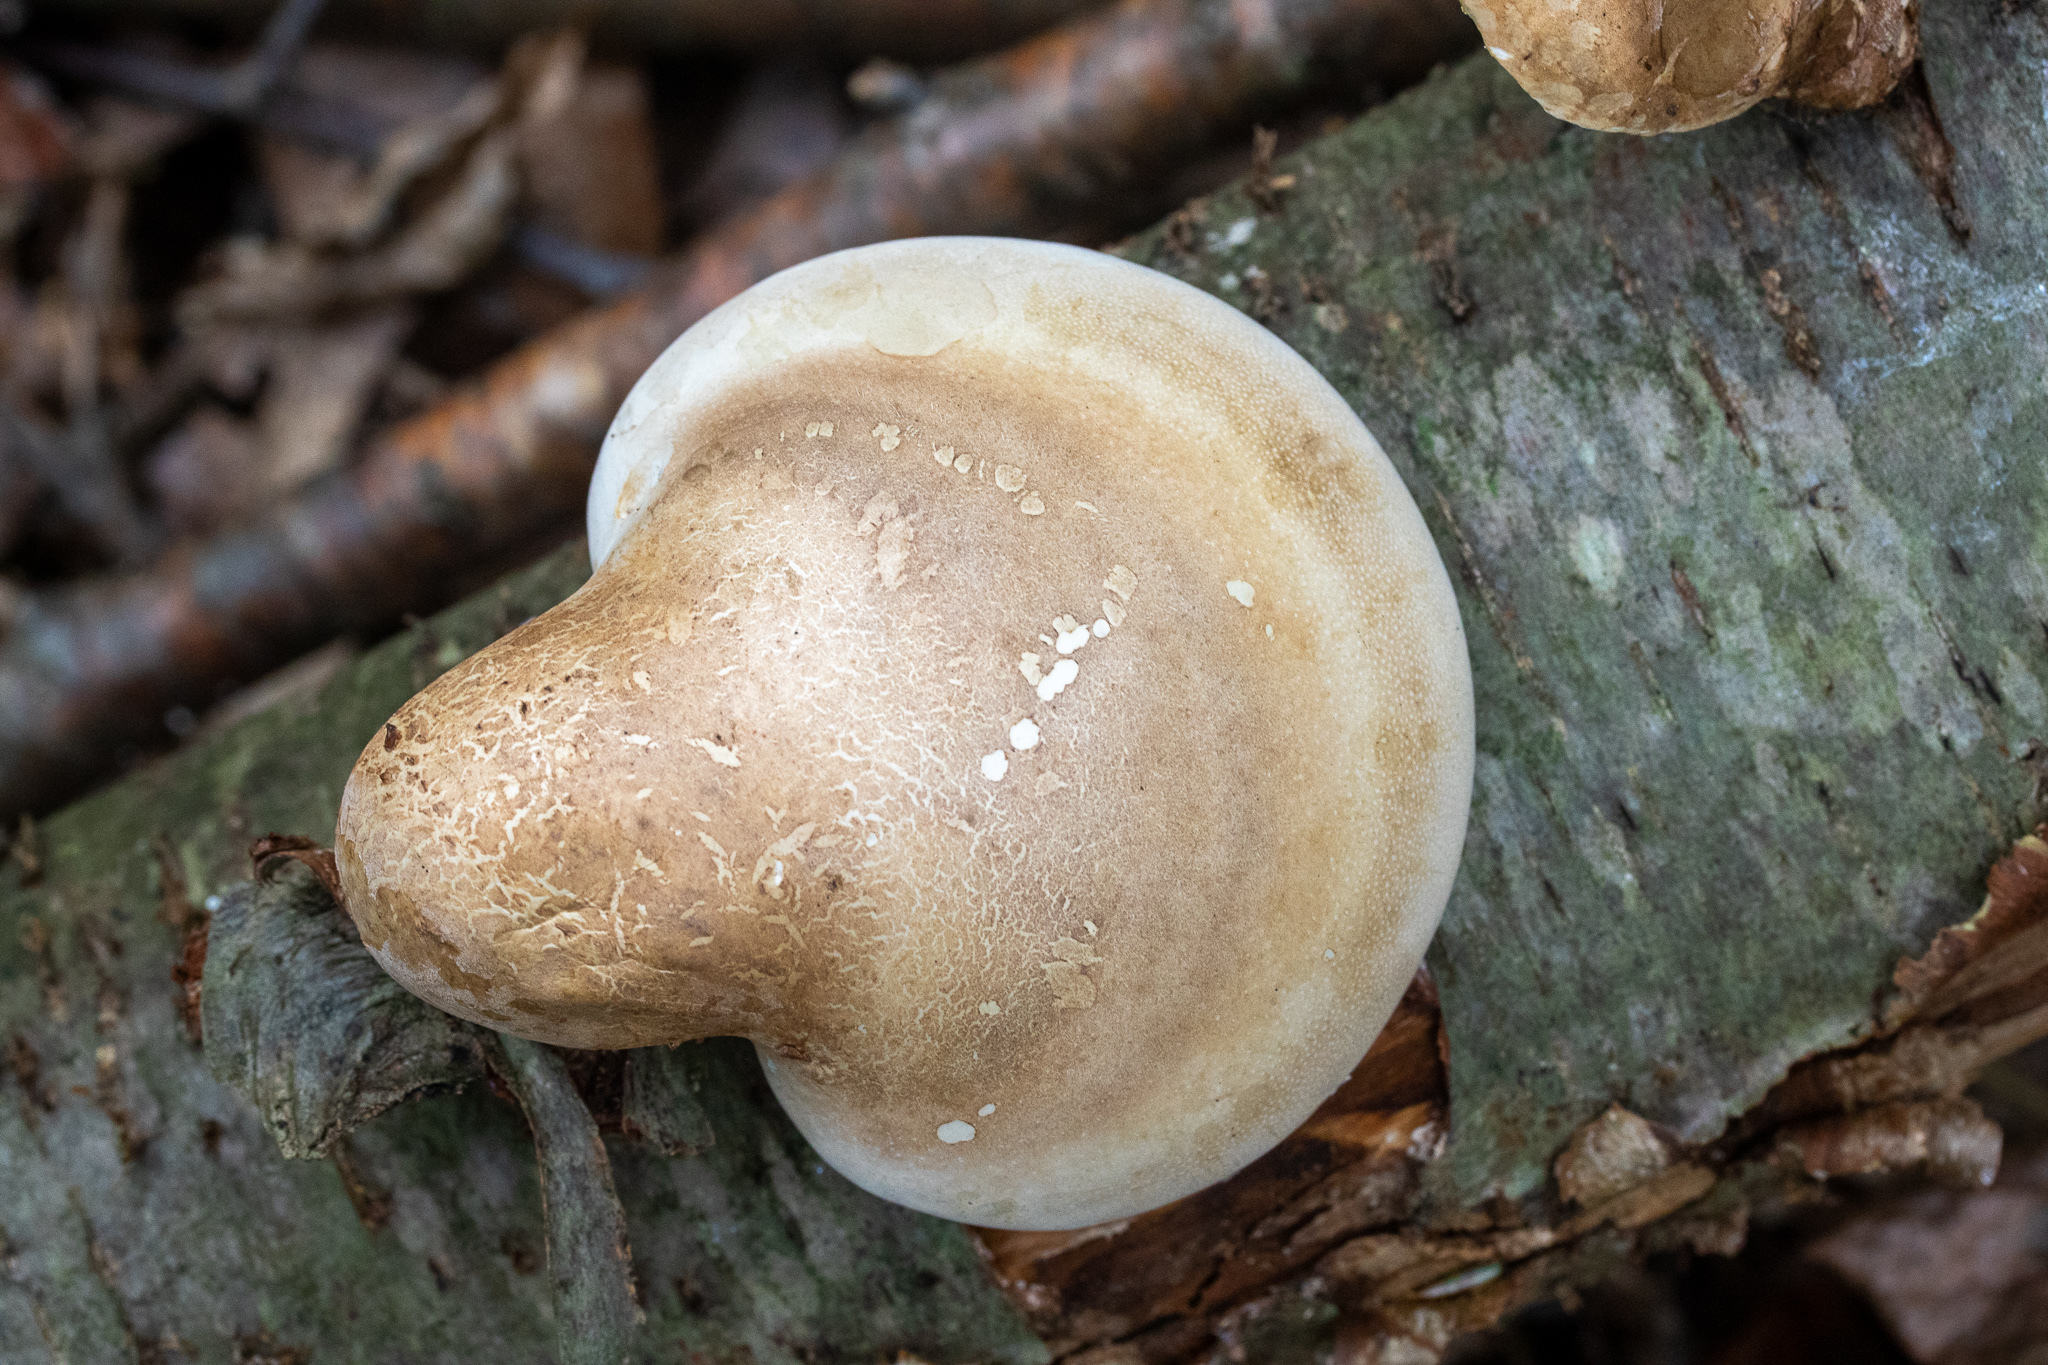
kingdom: Fungi
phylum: Basidiomycota
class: Agaricomycetes
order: Polyporales
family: Fomitopsidaceae
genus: Fomitopsis
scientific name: Fomitopsis betulina
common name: Birch polypore
